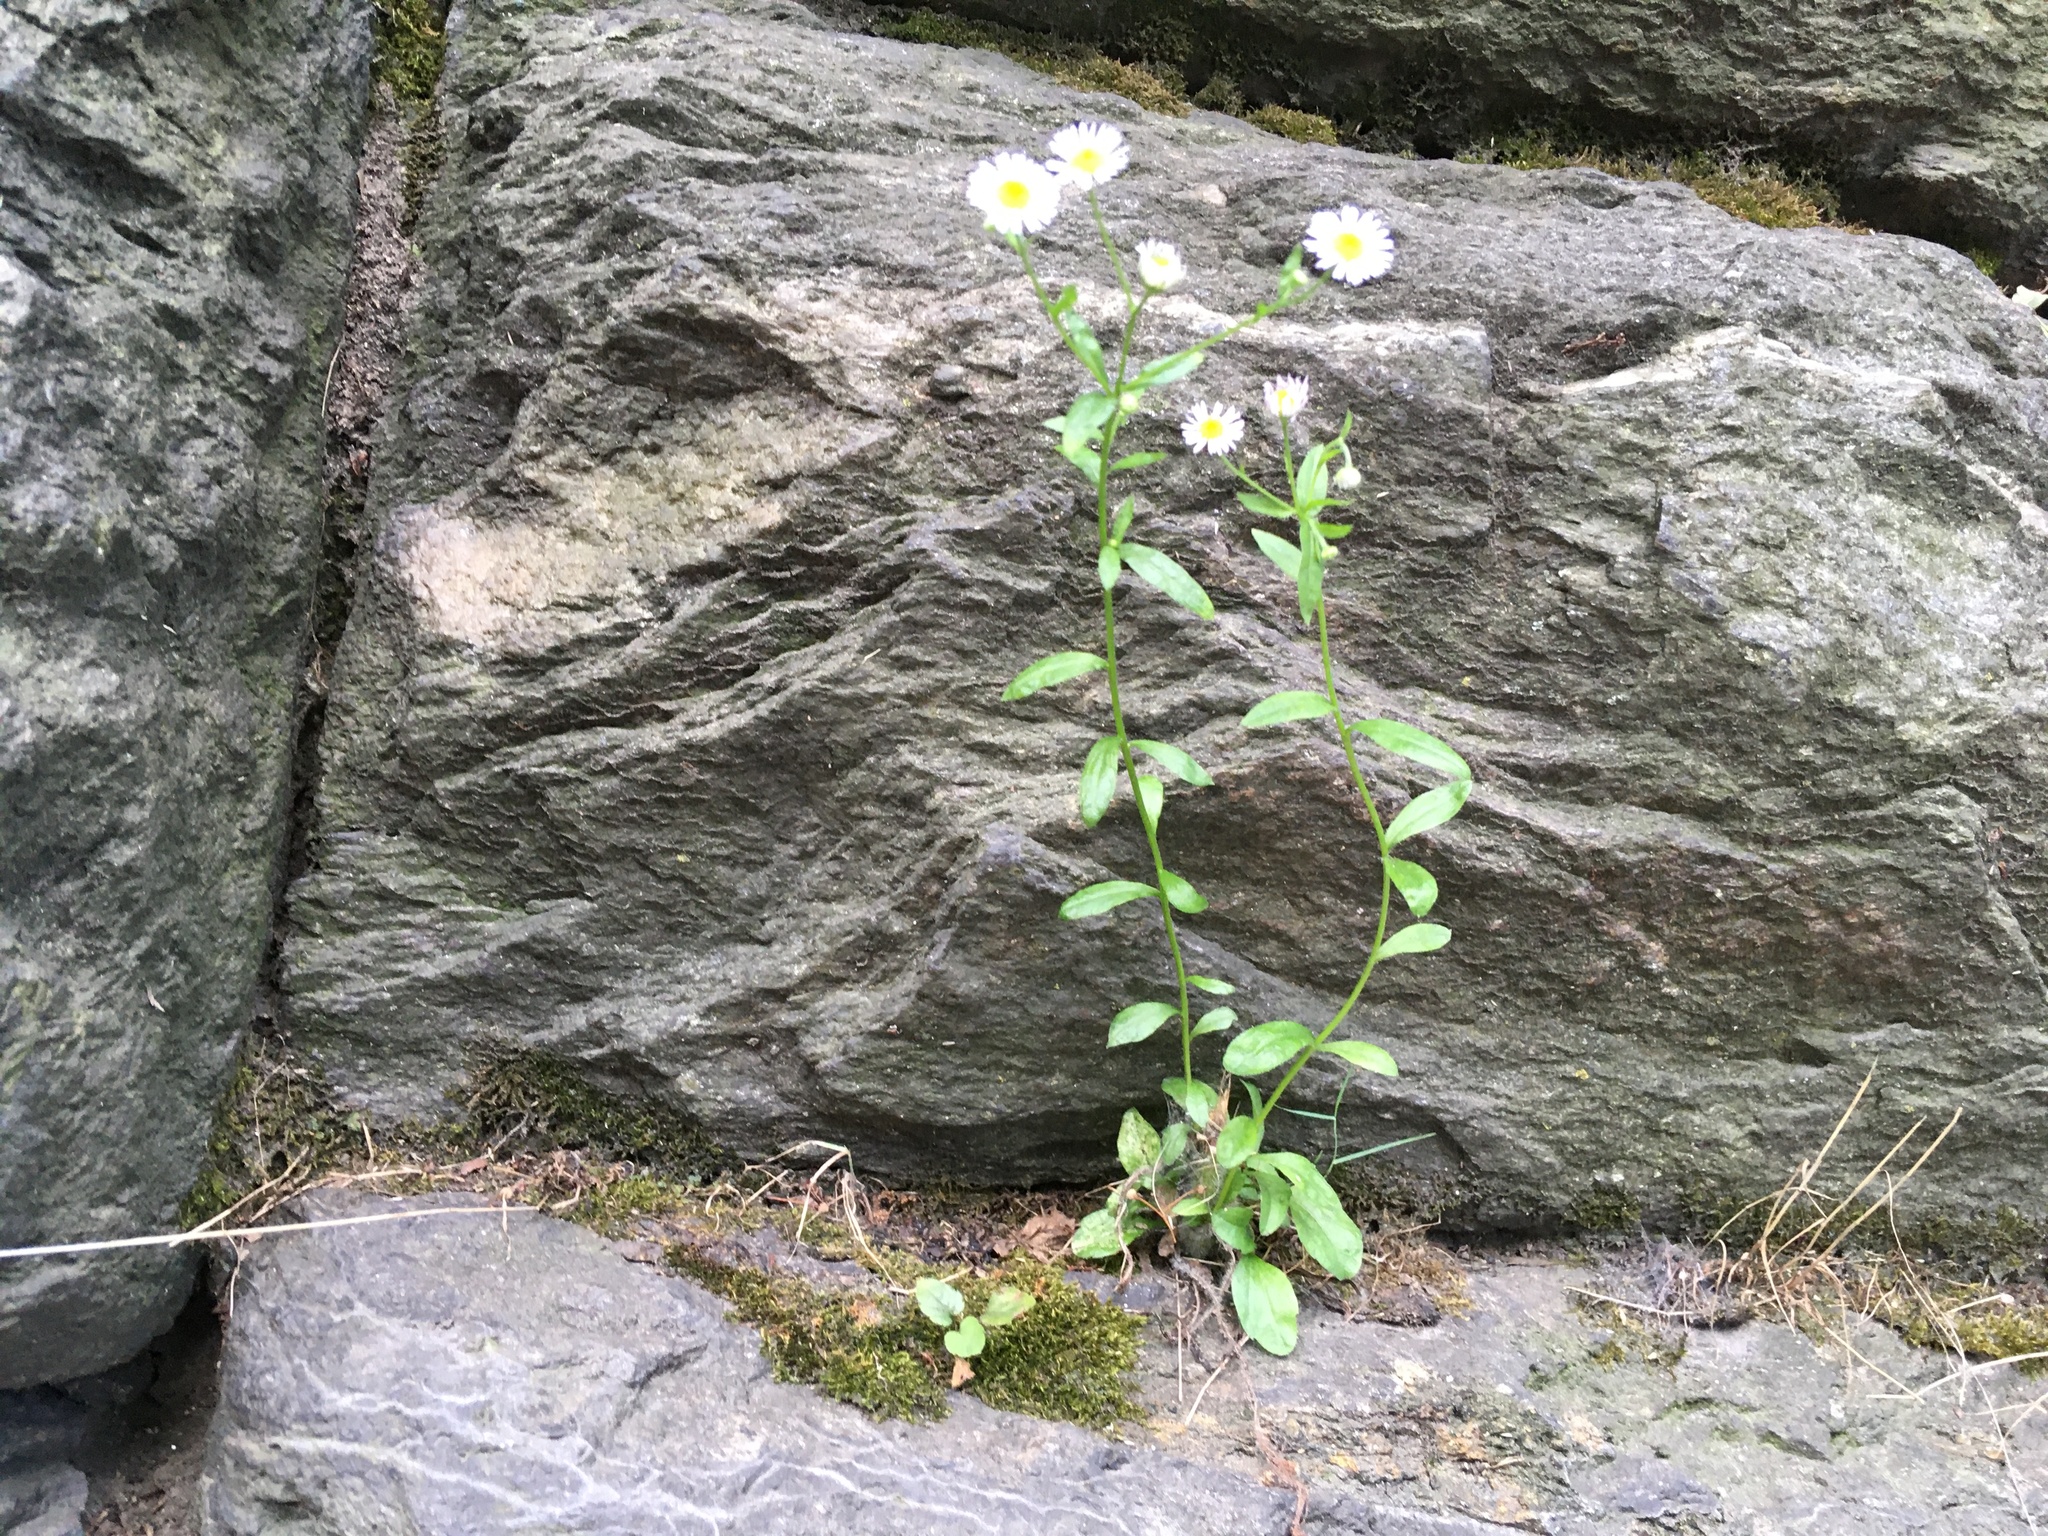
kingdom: Plantae
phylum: Tracheophyta
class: Magnoliopsida
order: Asterales
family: Asteraceae
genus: Erigeron
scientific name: Erigeron strigosus
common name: Common eastern fleabane
